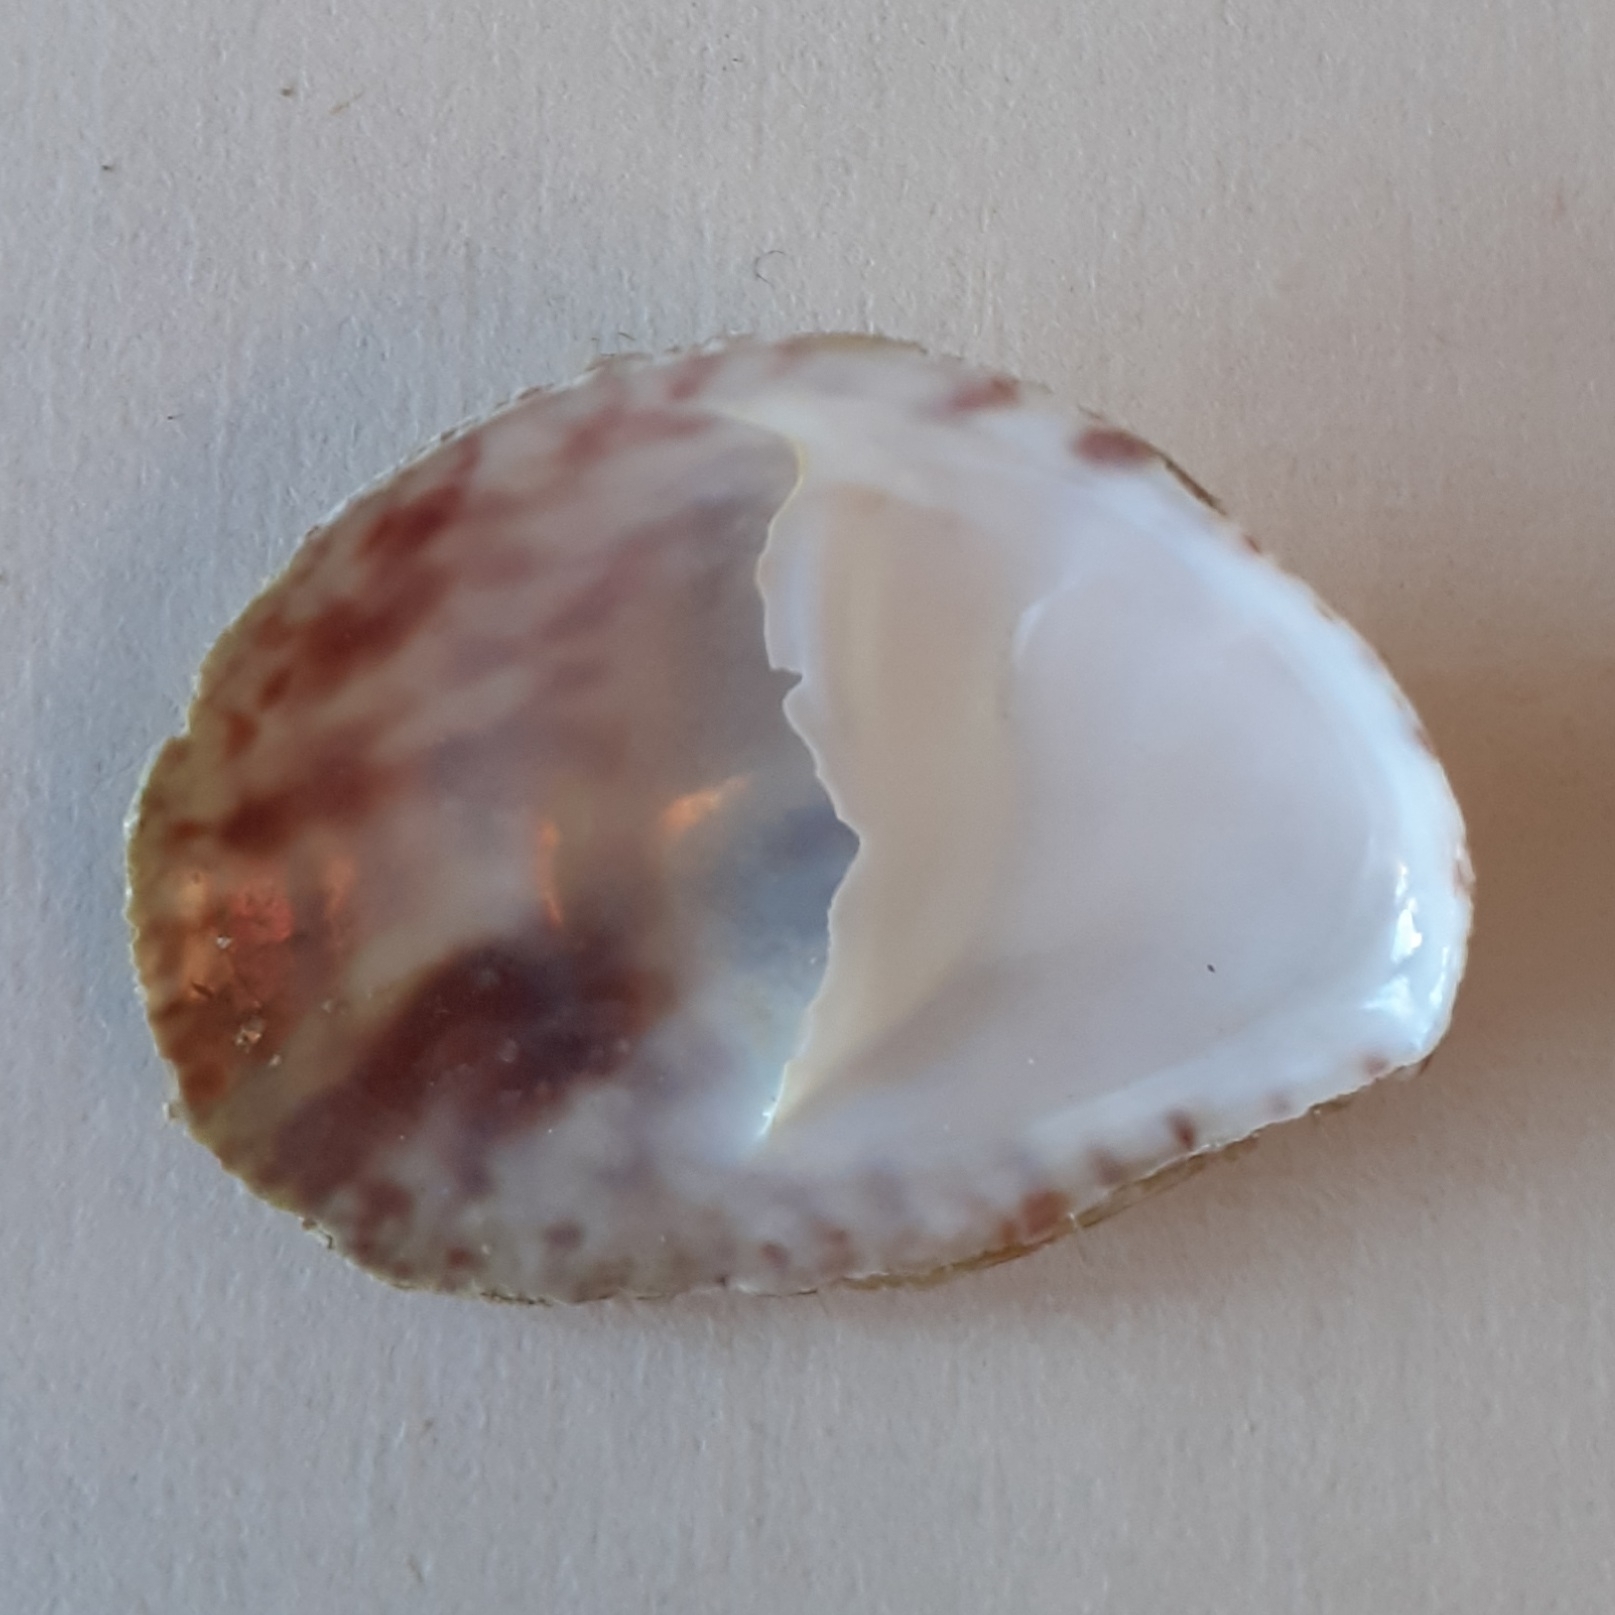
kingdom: Animalia
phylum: Mollusca
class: Gastropoda
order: Littorinimorpha
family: Calyptraeidae
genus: Crepidula
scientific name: Crepidula fornicata
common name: Slipper limpet
